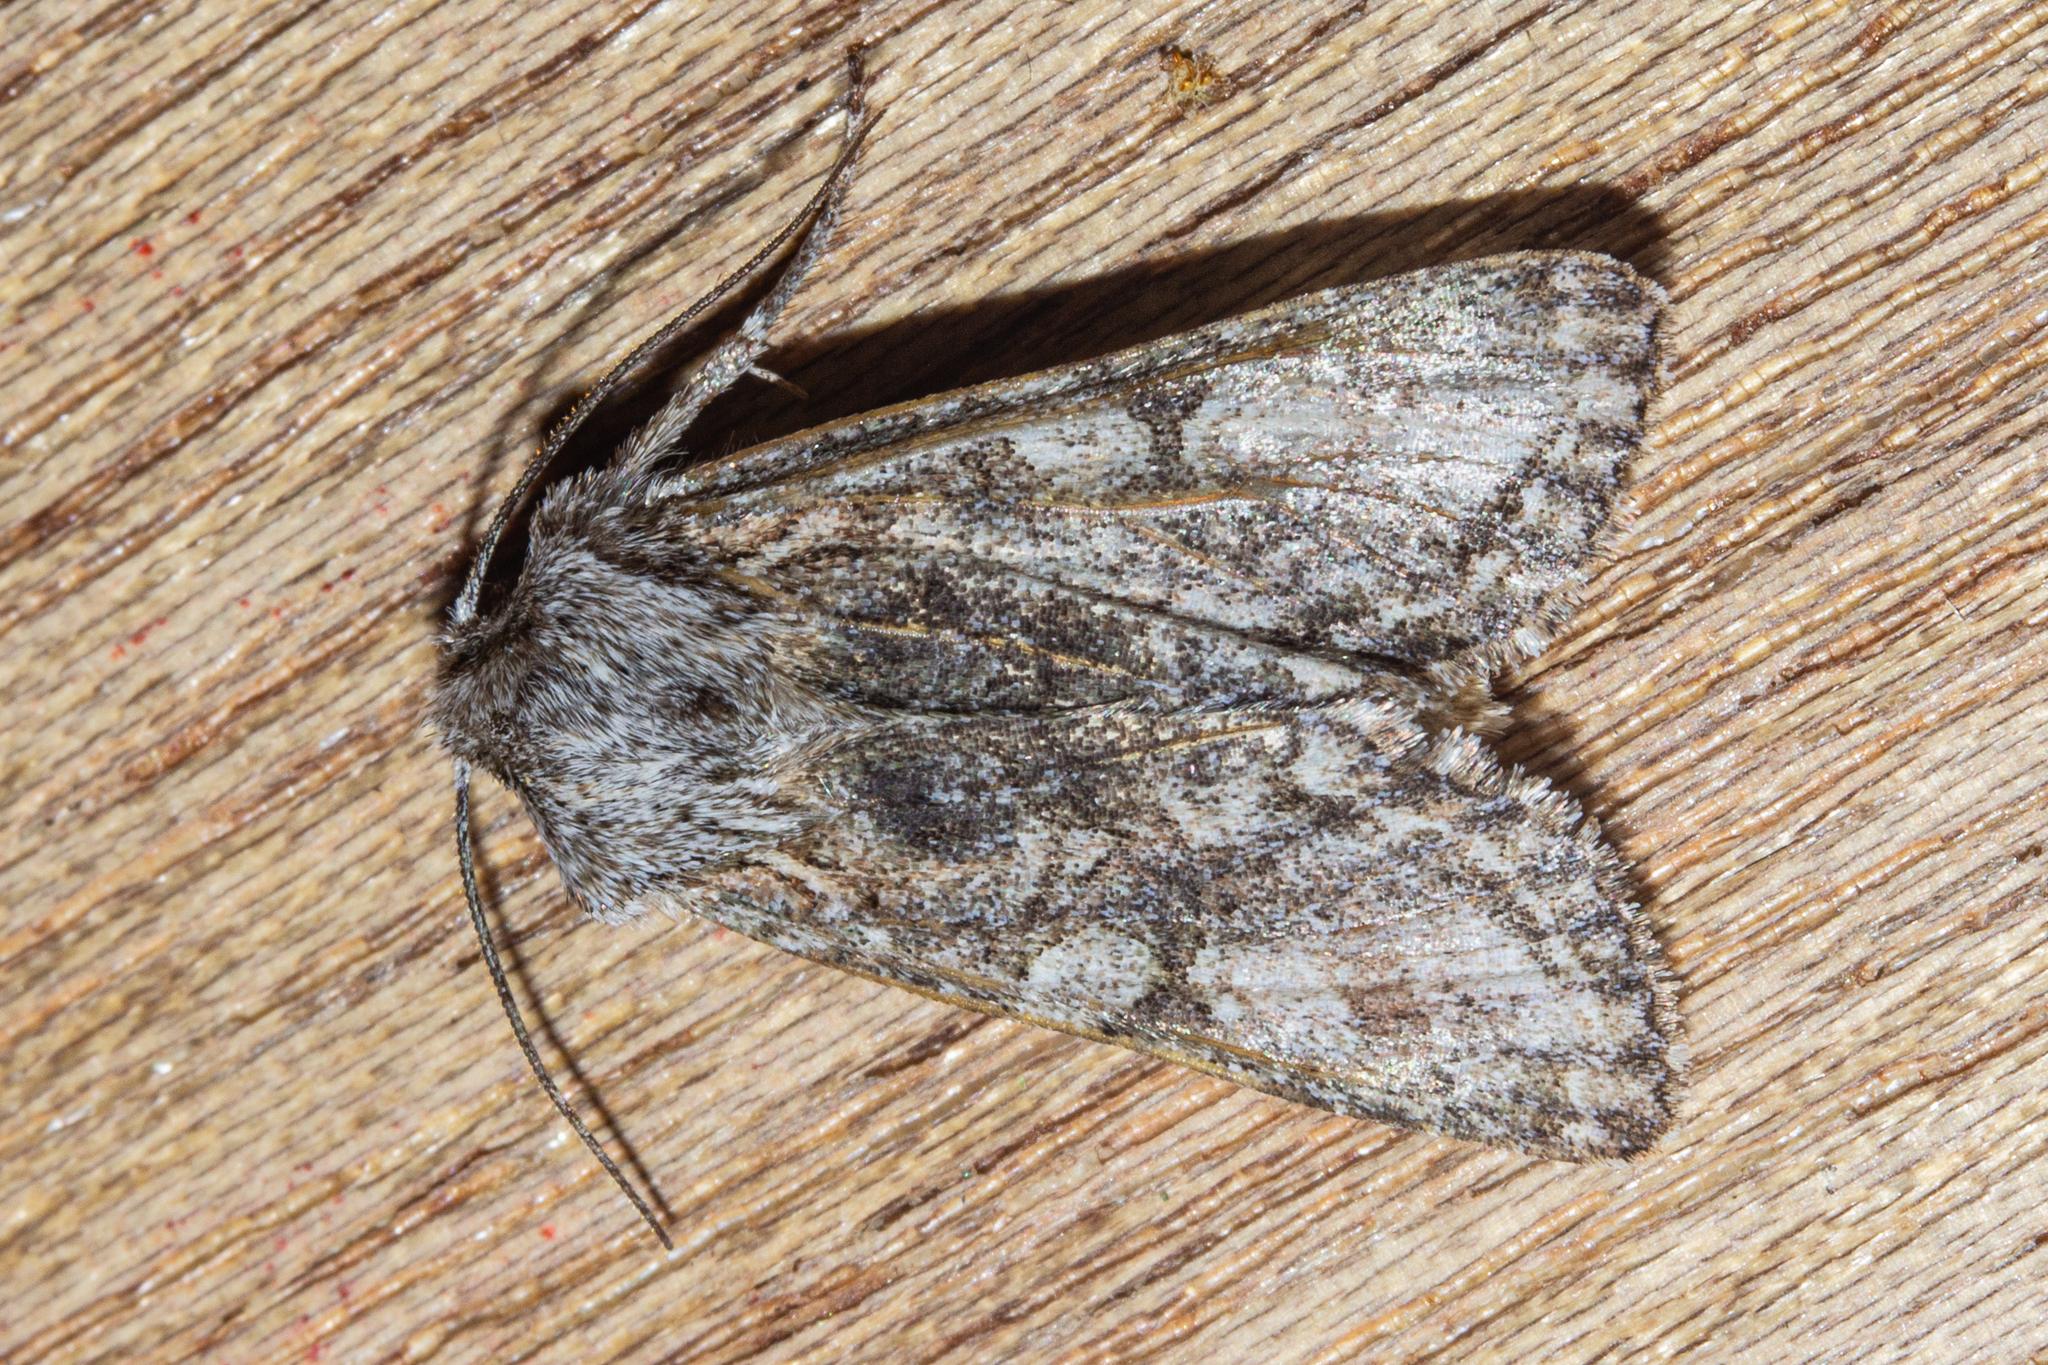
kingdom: Animalia
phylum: Arthropoda
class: Insecta
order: Lepidoptera
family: Noctuidae
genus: Ichneutica
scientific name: Ichneutica mutans
